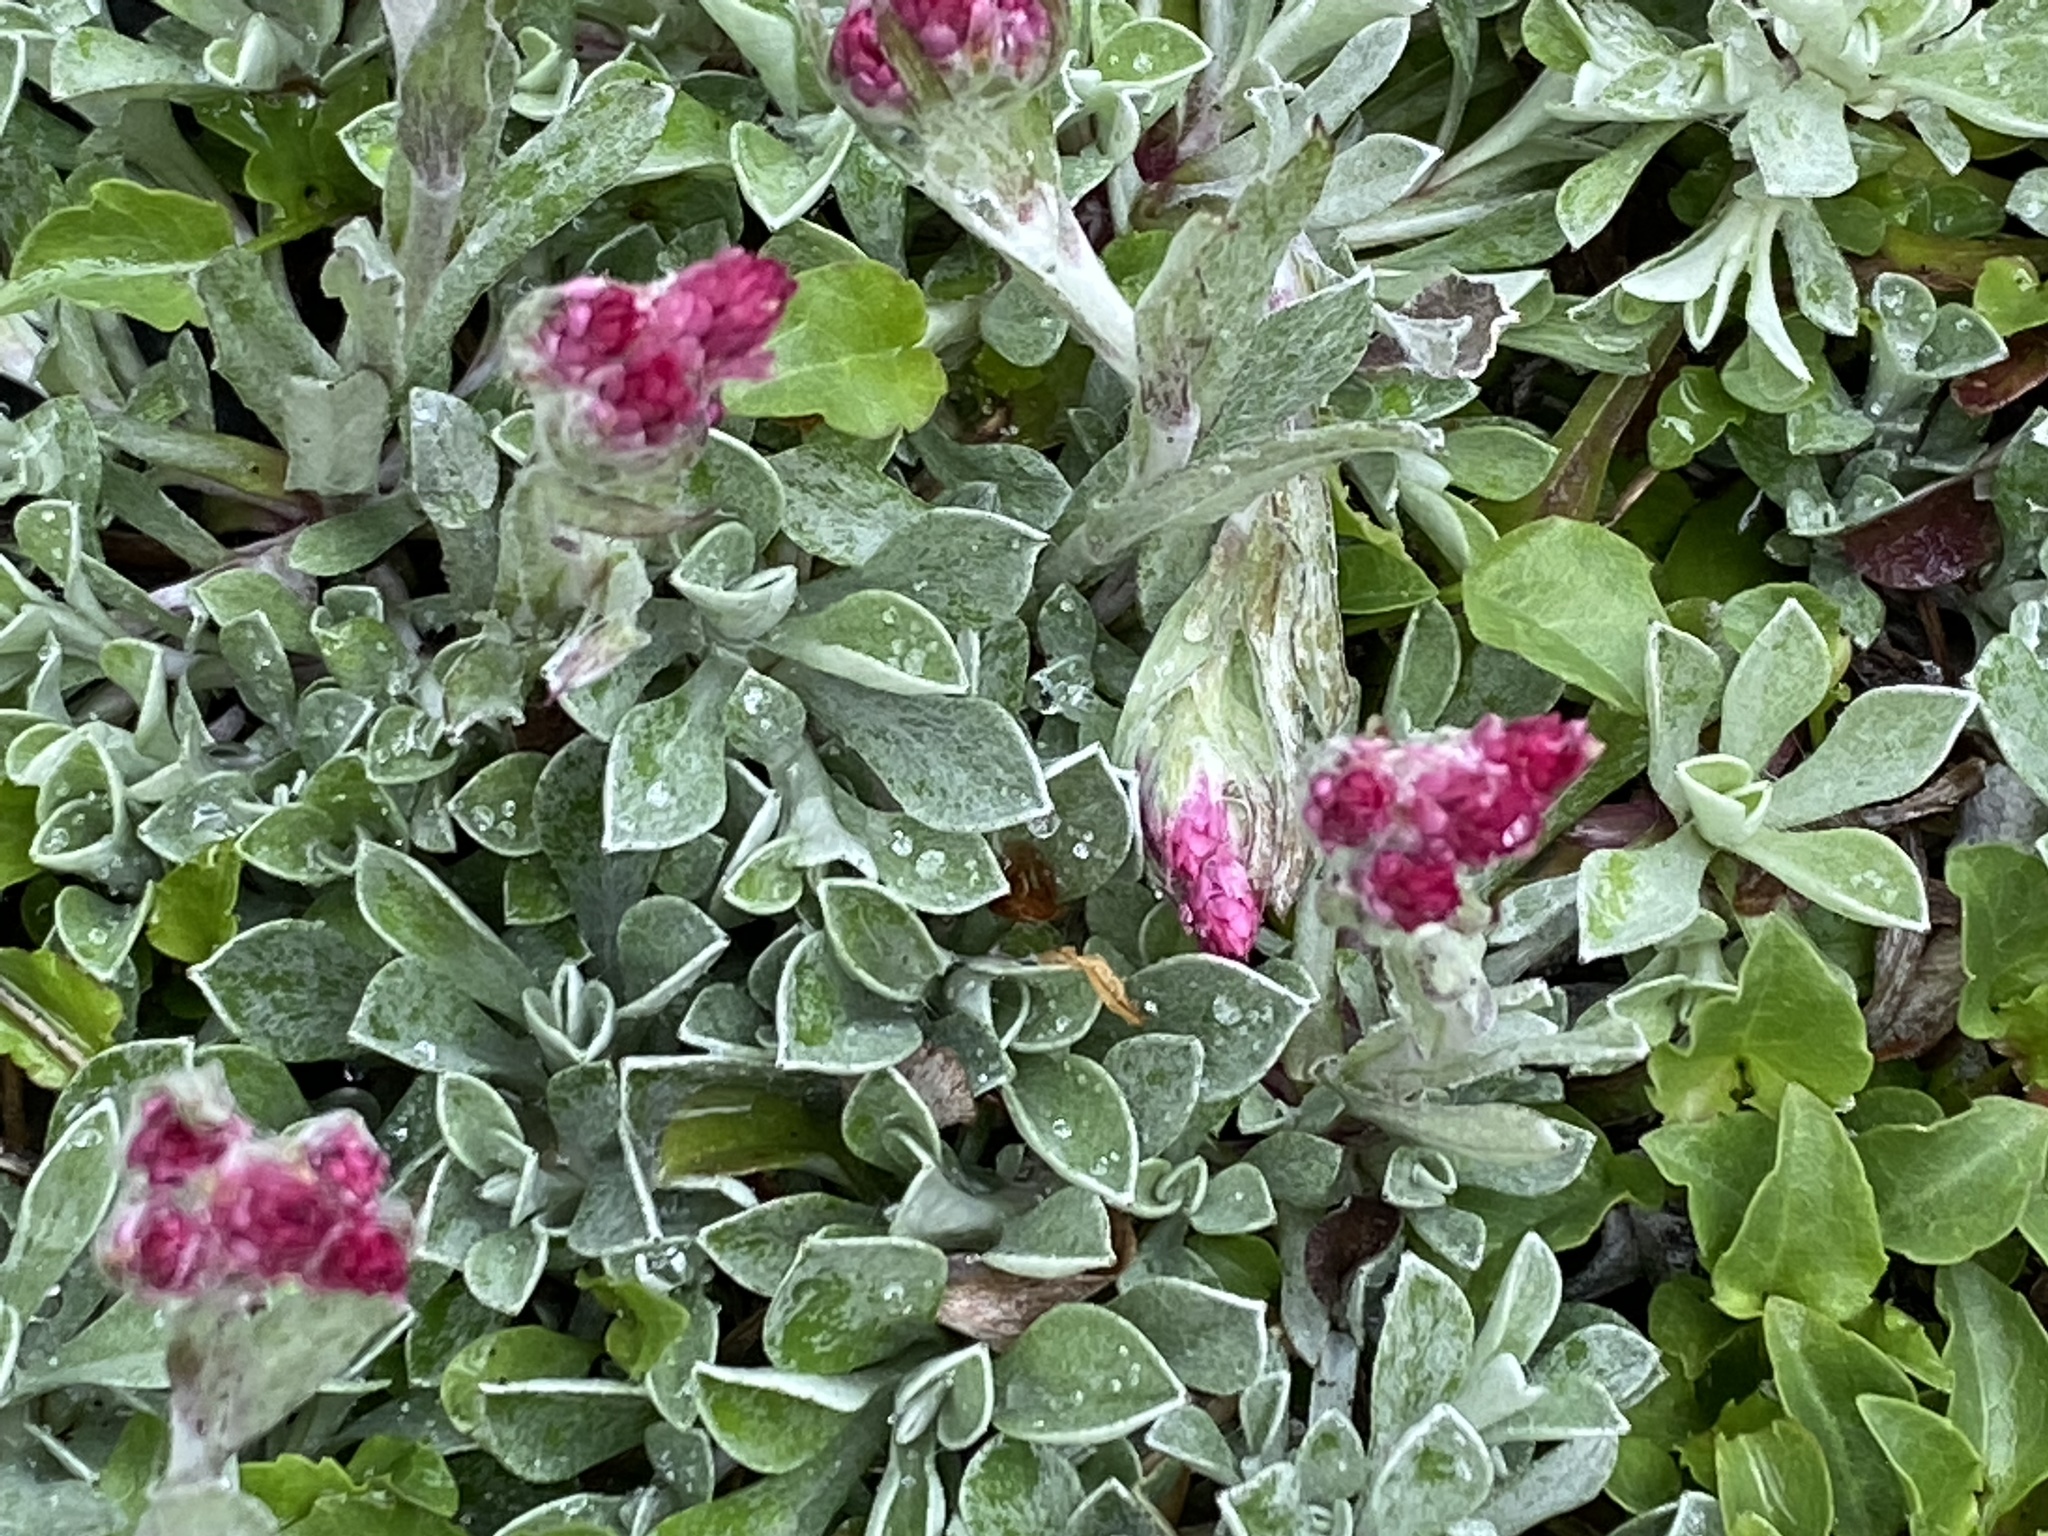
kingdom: Plantae
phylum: Tracheophyta
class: Magnoliopsida
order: Asterales
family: Asteraceae
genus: Antennaria
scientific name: Antennaria dioica
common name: Mountain everlasting
